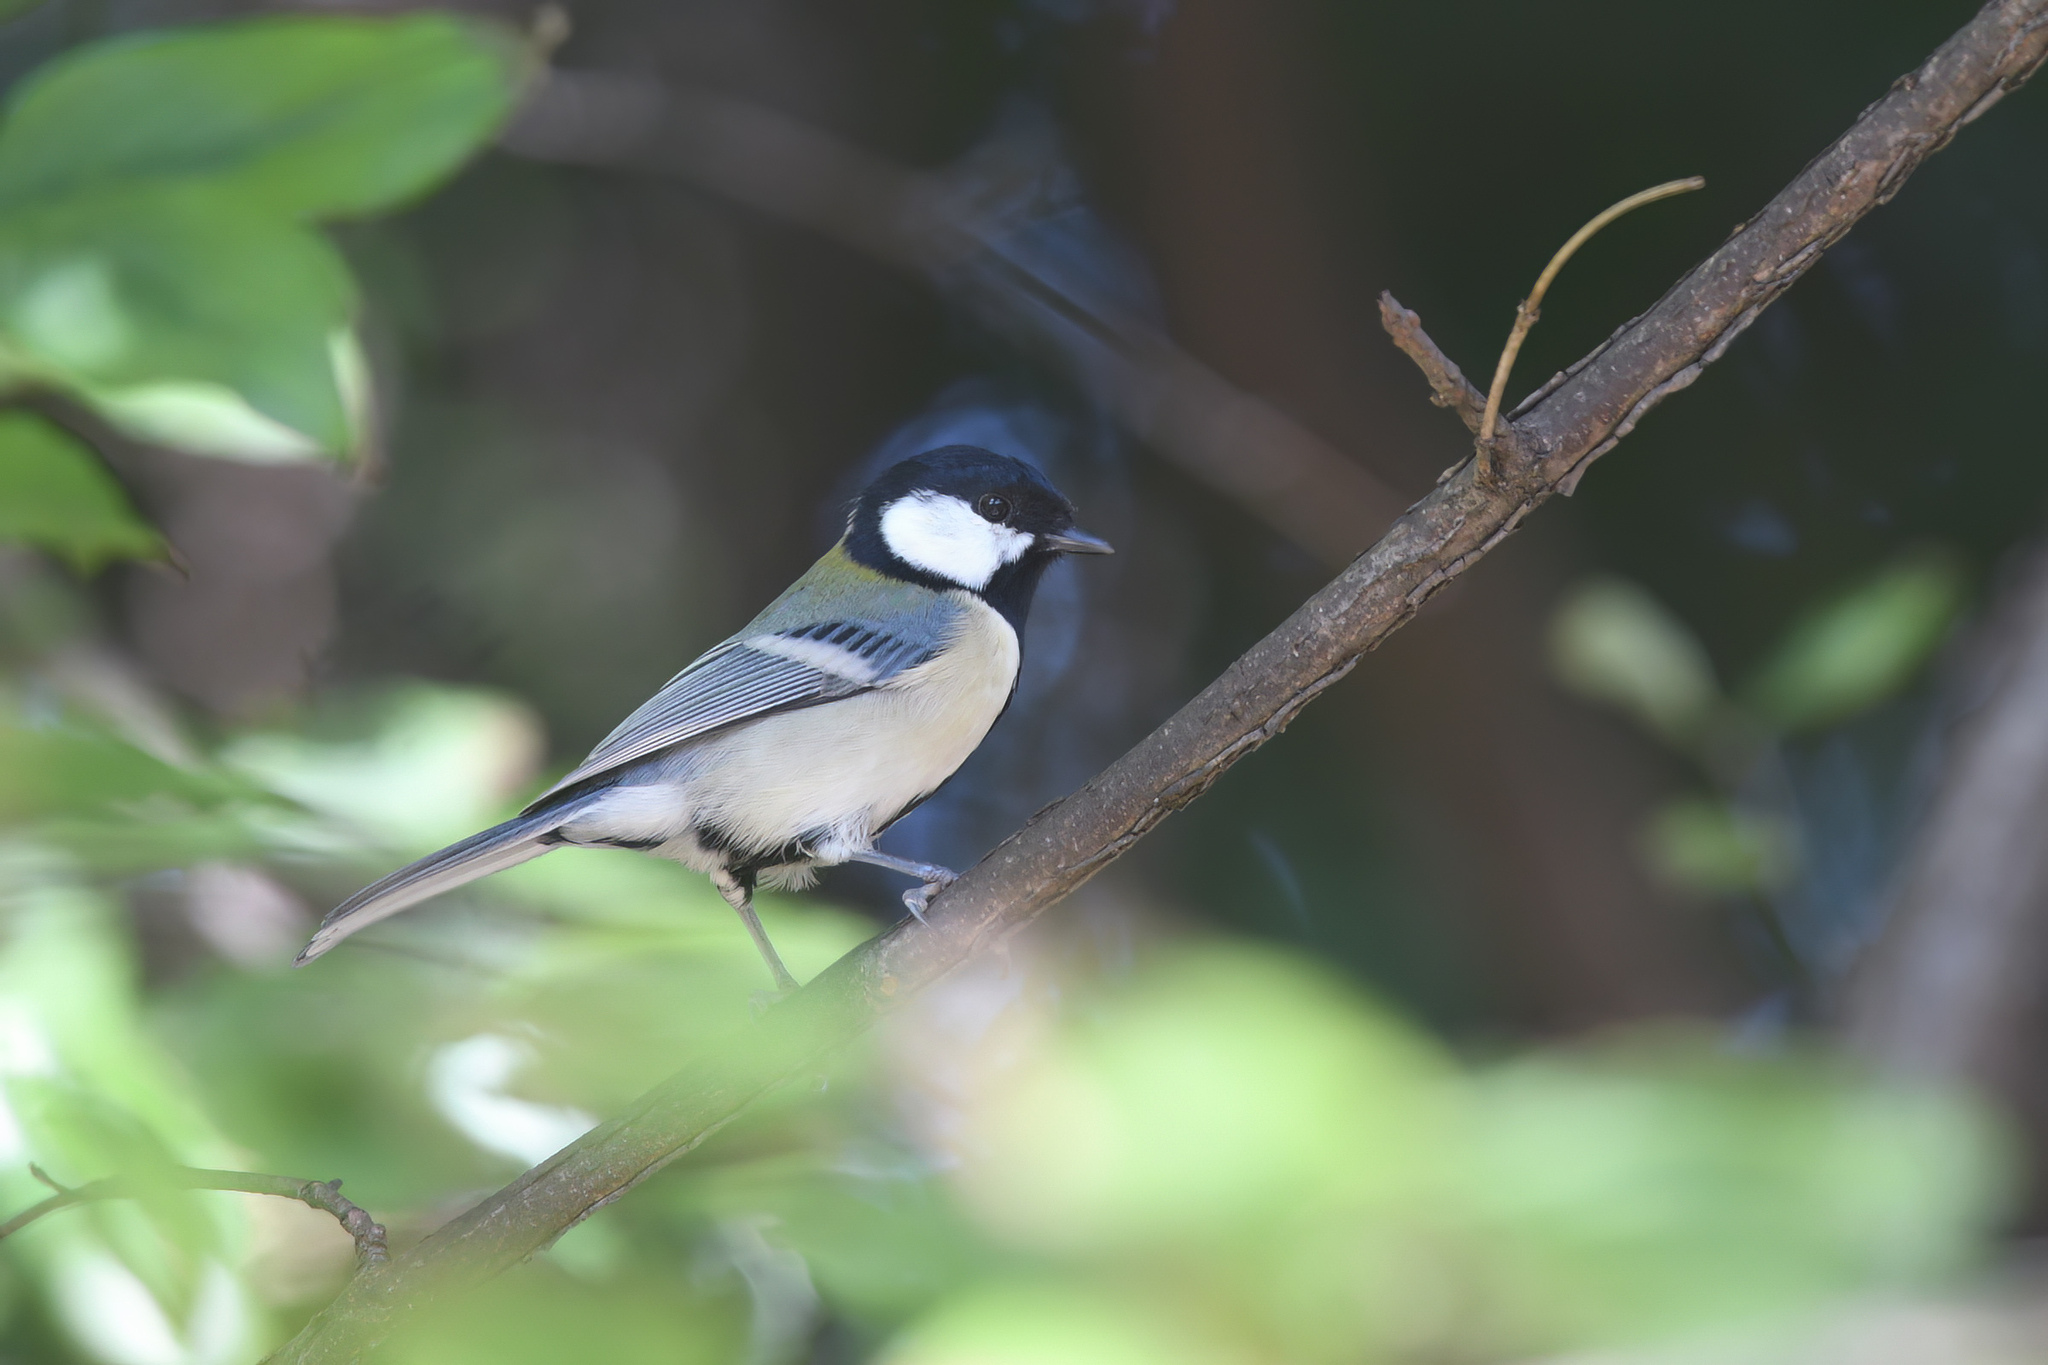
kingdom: Animalia
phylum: Chordata
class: Aves
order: Passeriformes
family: Paridae
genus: Parus
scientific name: Parus minor
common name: Japanese tit
